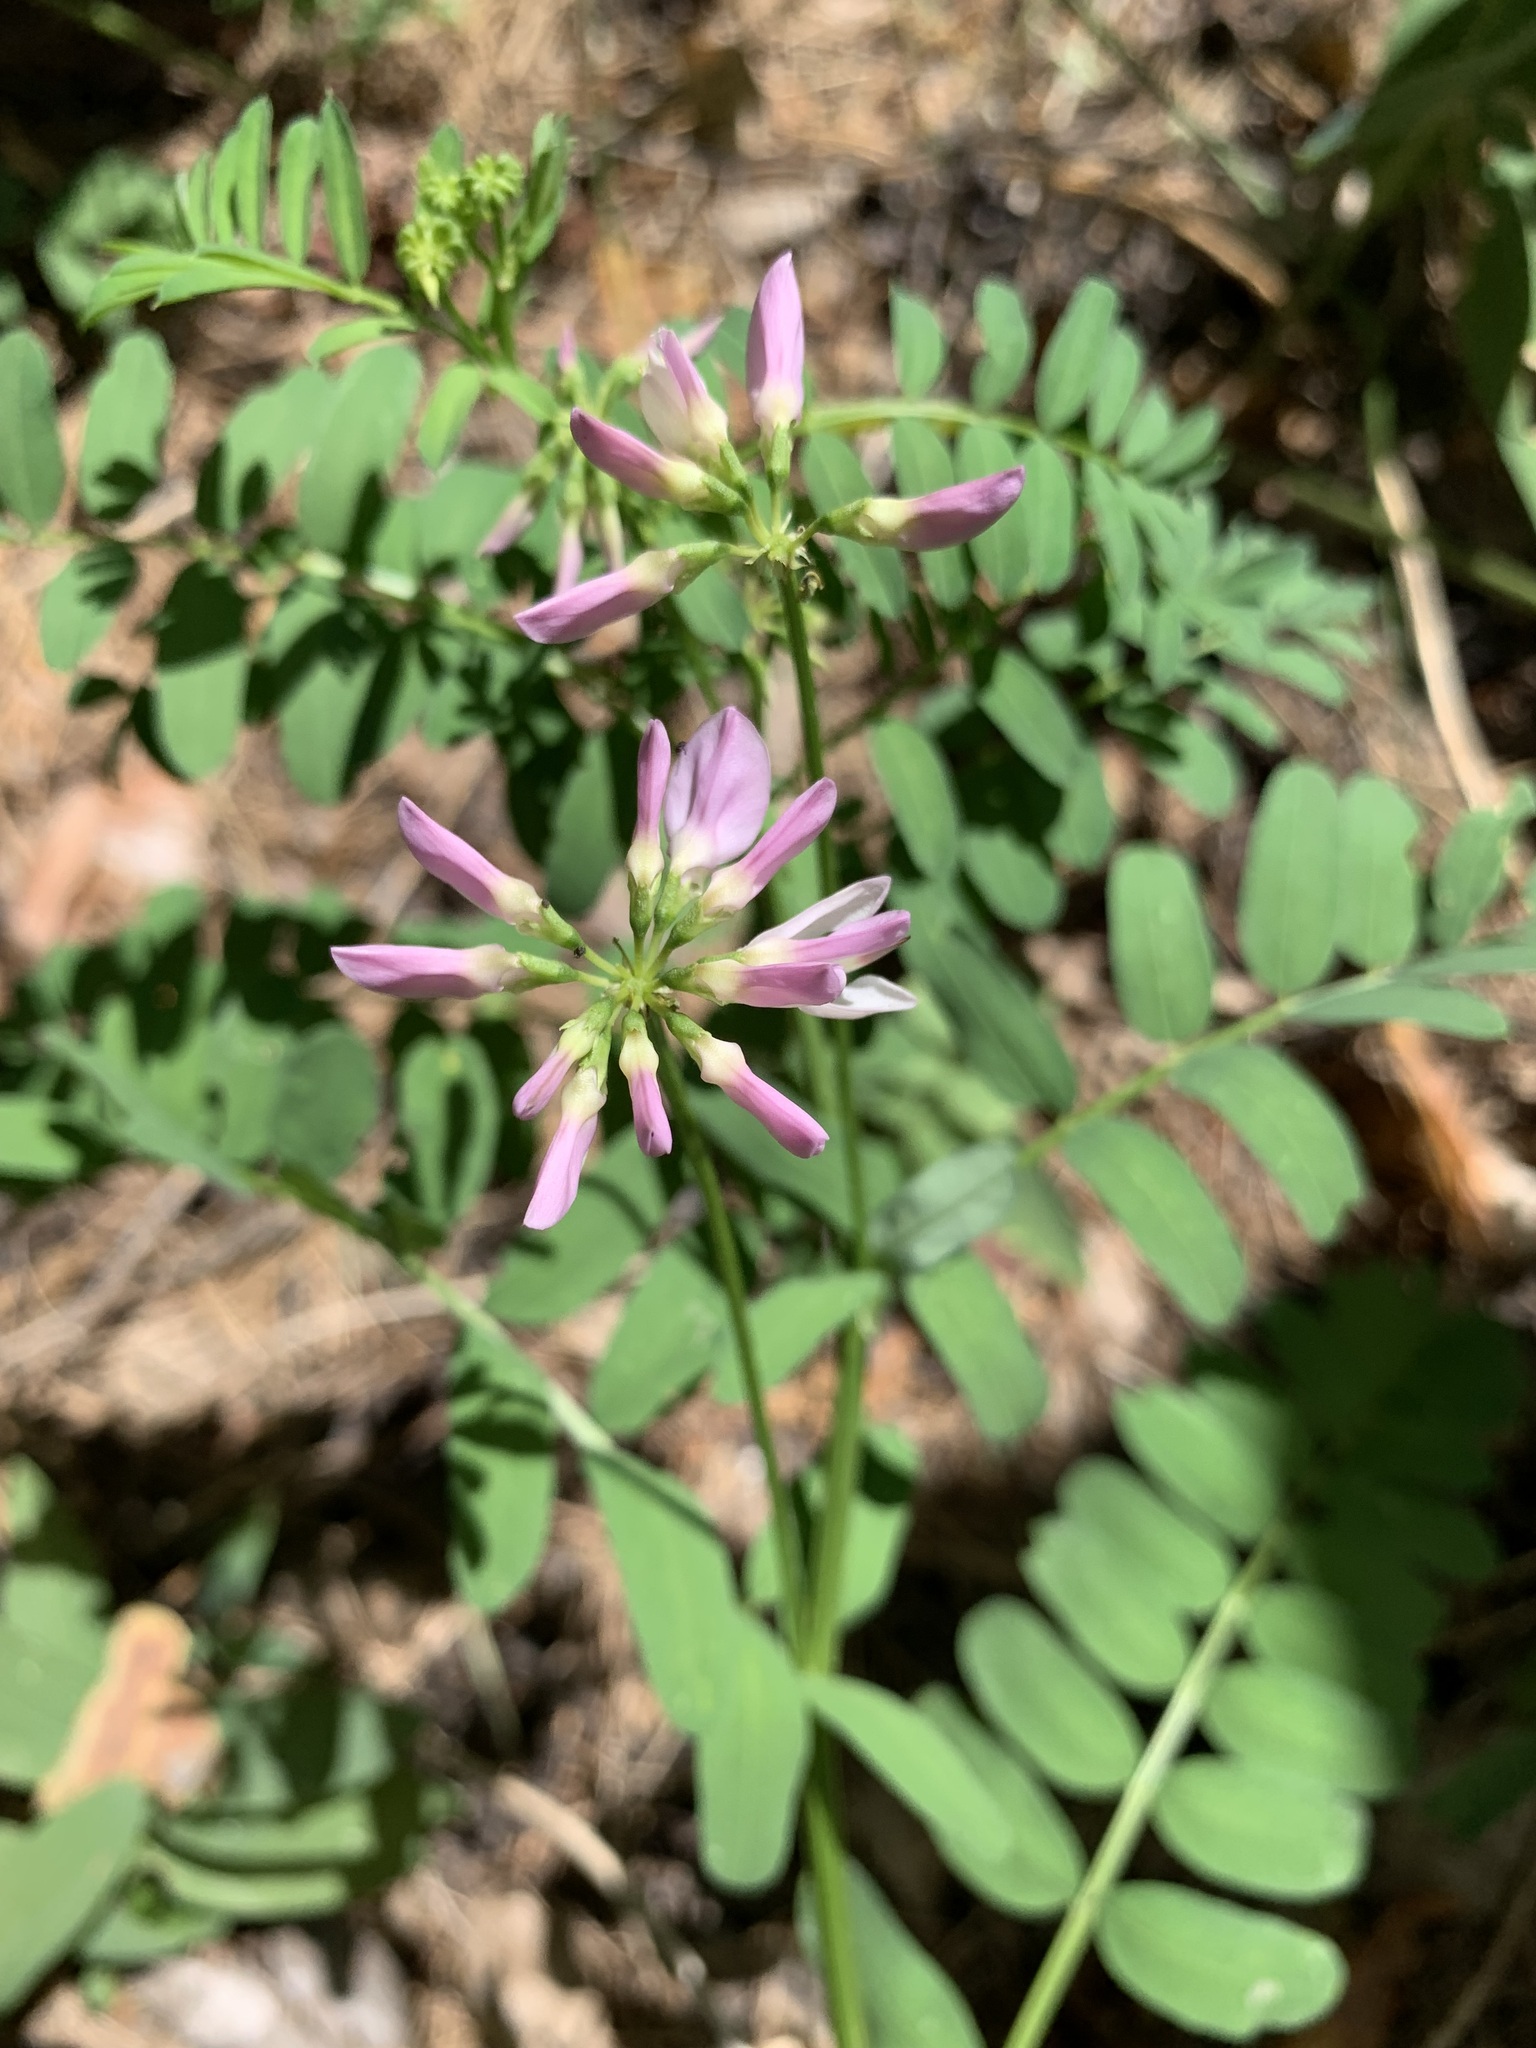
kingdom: Plantae
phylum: Tracheophyta
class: Magnoliopsida
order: Fabales
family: Fabaceae
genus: Coronilla
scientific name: Coronilla varia
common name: Crownvetch
